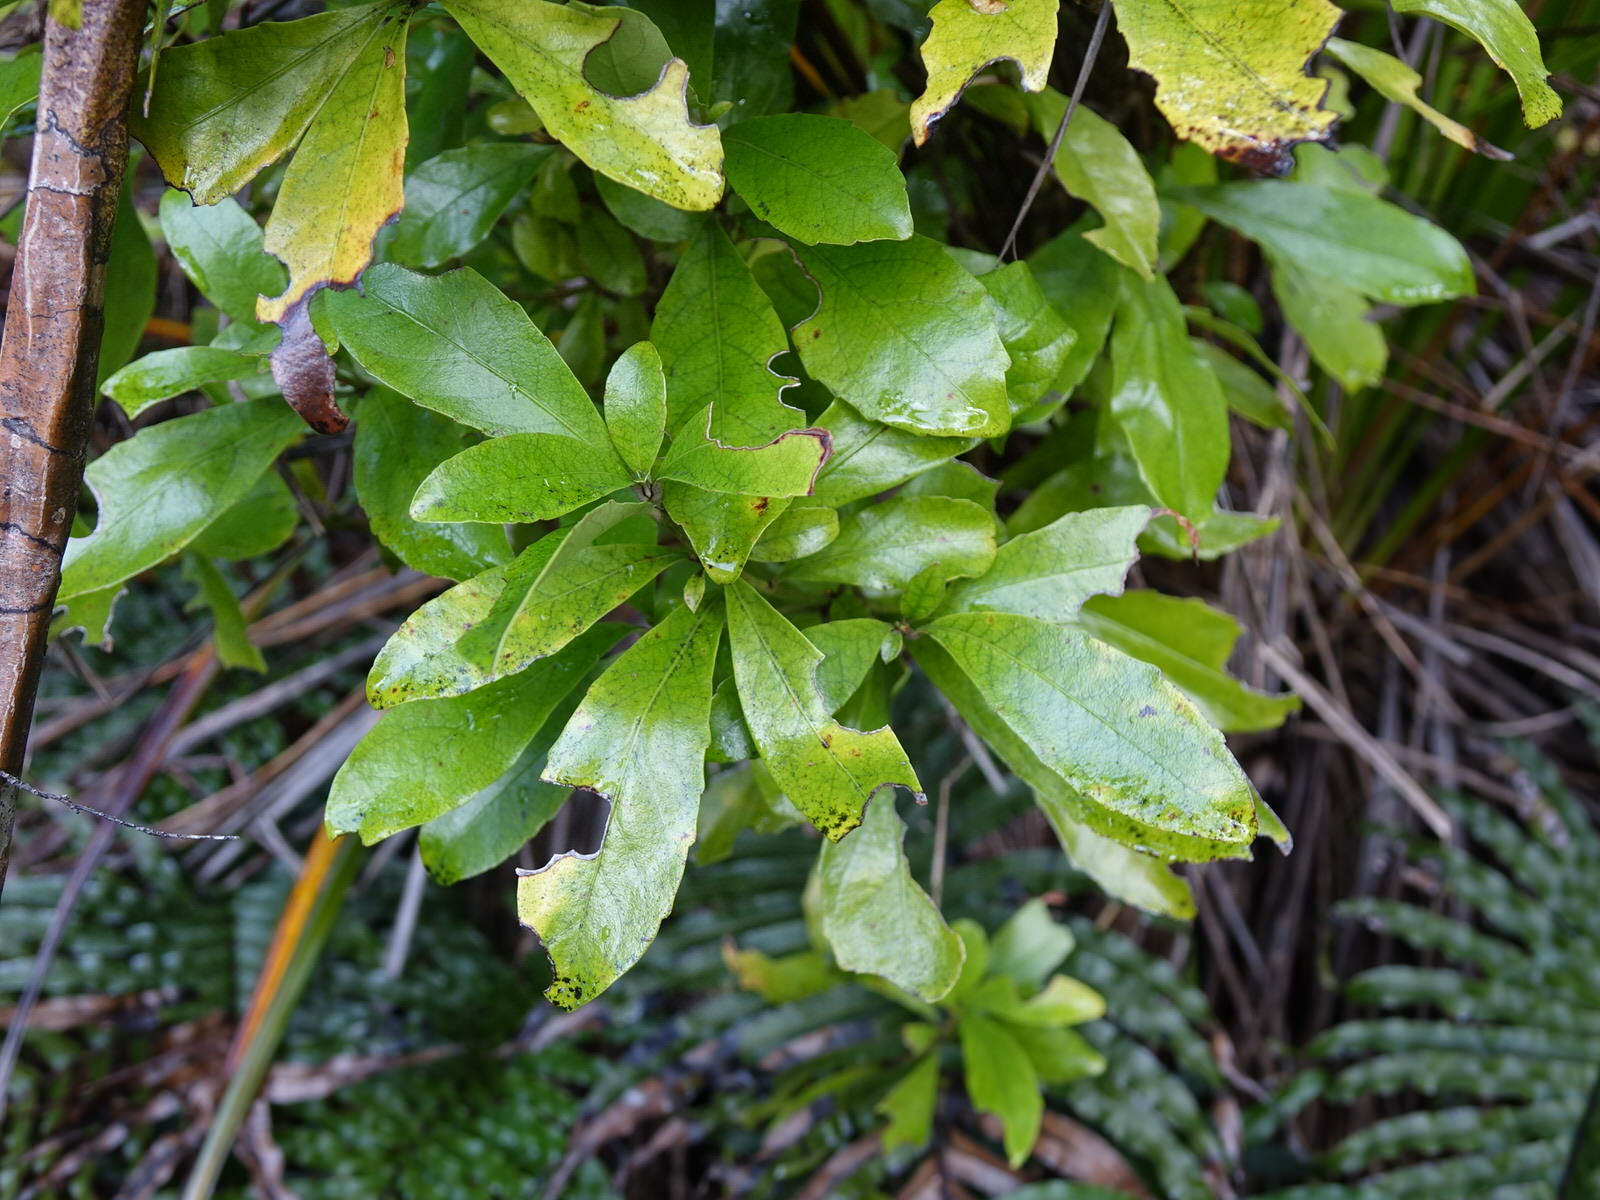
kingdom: Plantae
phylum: Tracheophyta
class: Magnoliopsida
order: Asterales
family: Alseuosmiaceae
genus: Alseuosmia
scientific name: Alseuosmia macrophylla
